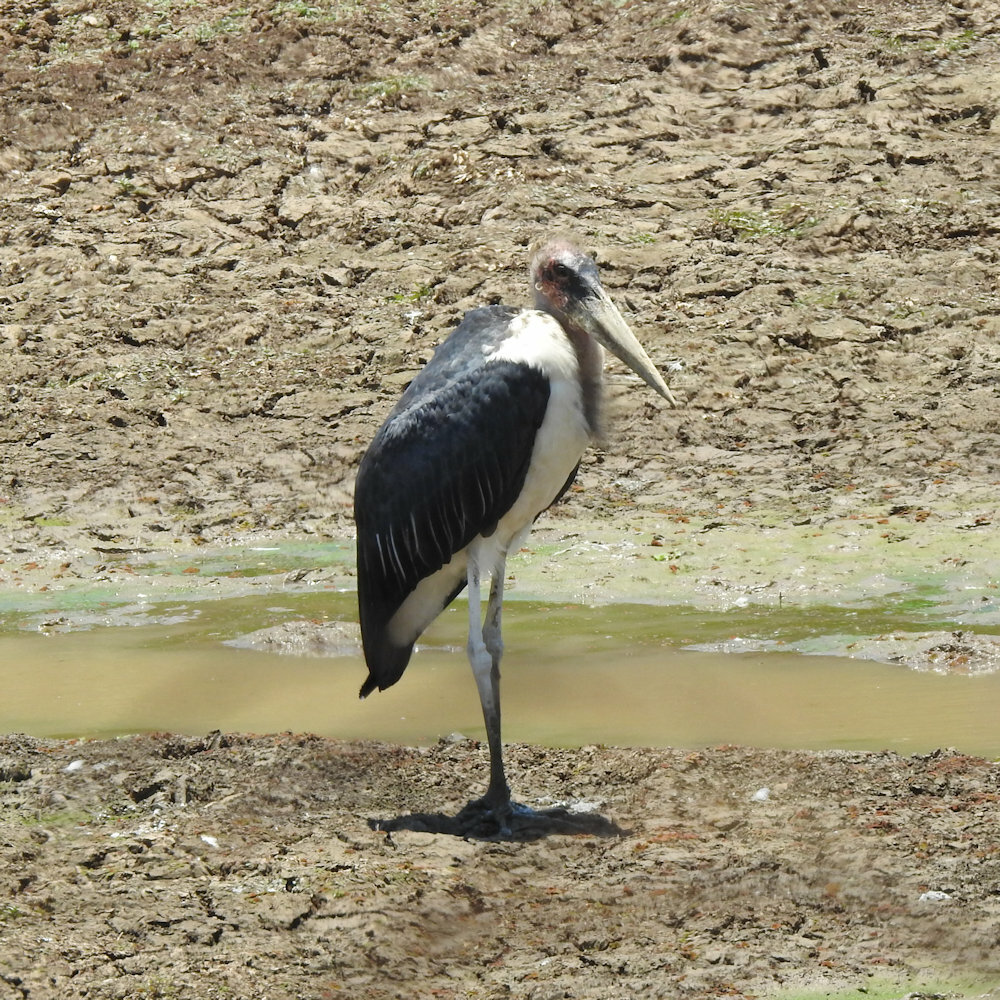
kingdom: Animalia
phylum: Chordata
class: Aves
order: Ciconiiformes
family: Ciconiidae
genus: Leptoptilos
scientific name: Leptoptilos crumenifer
